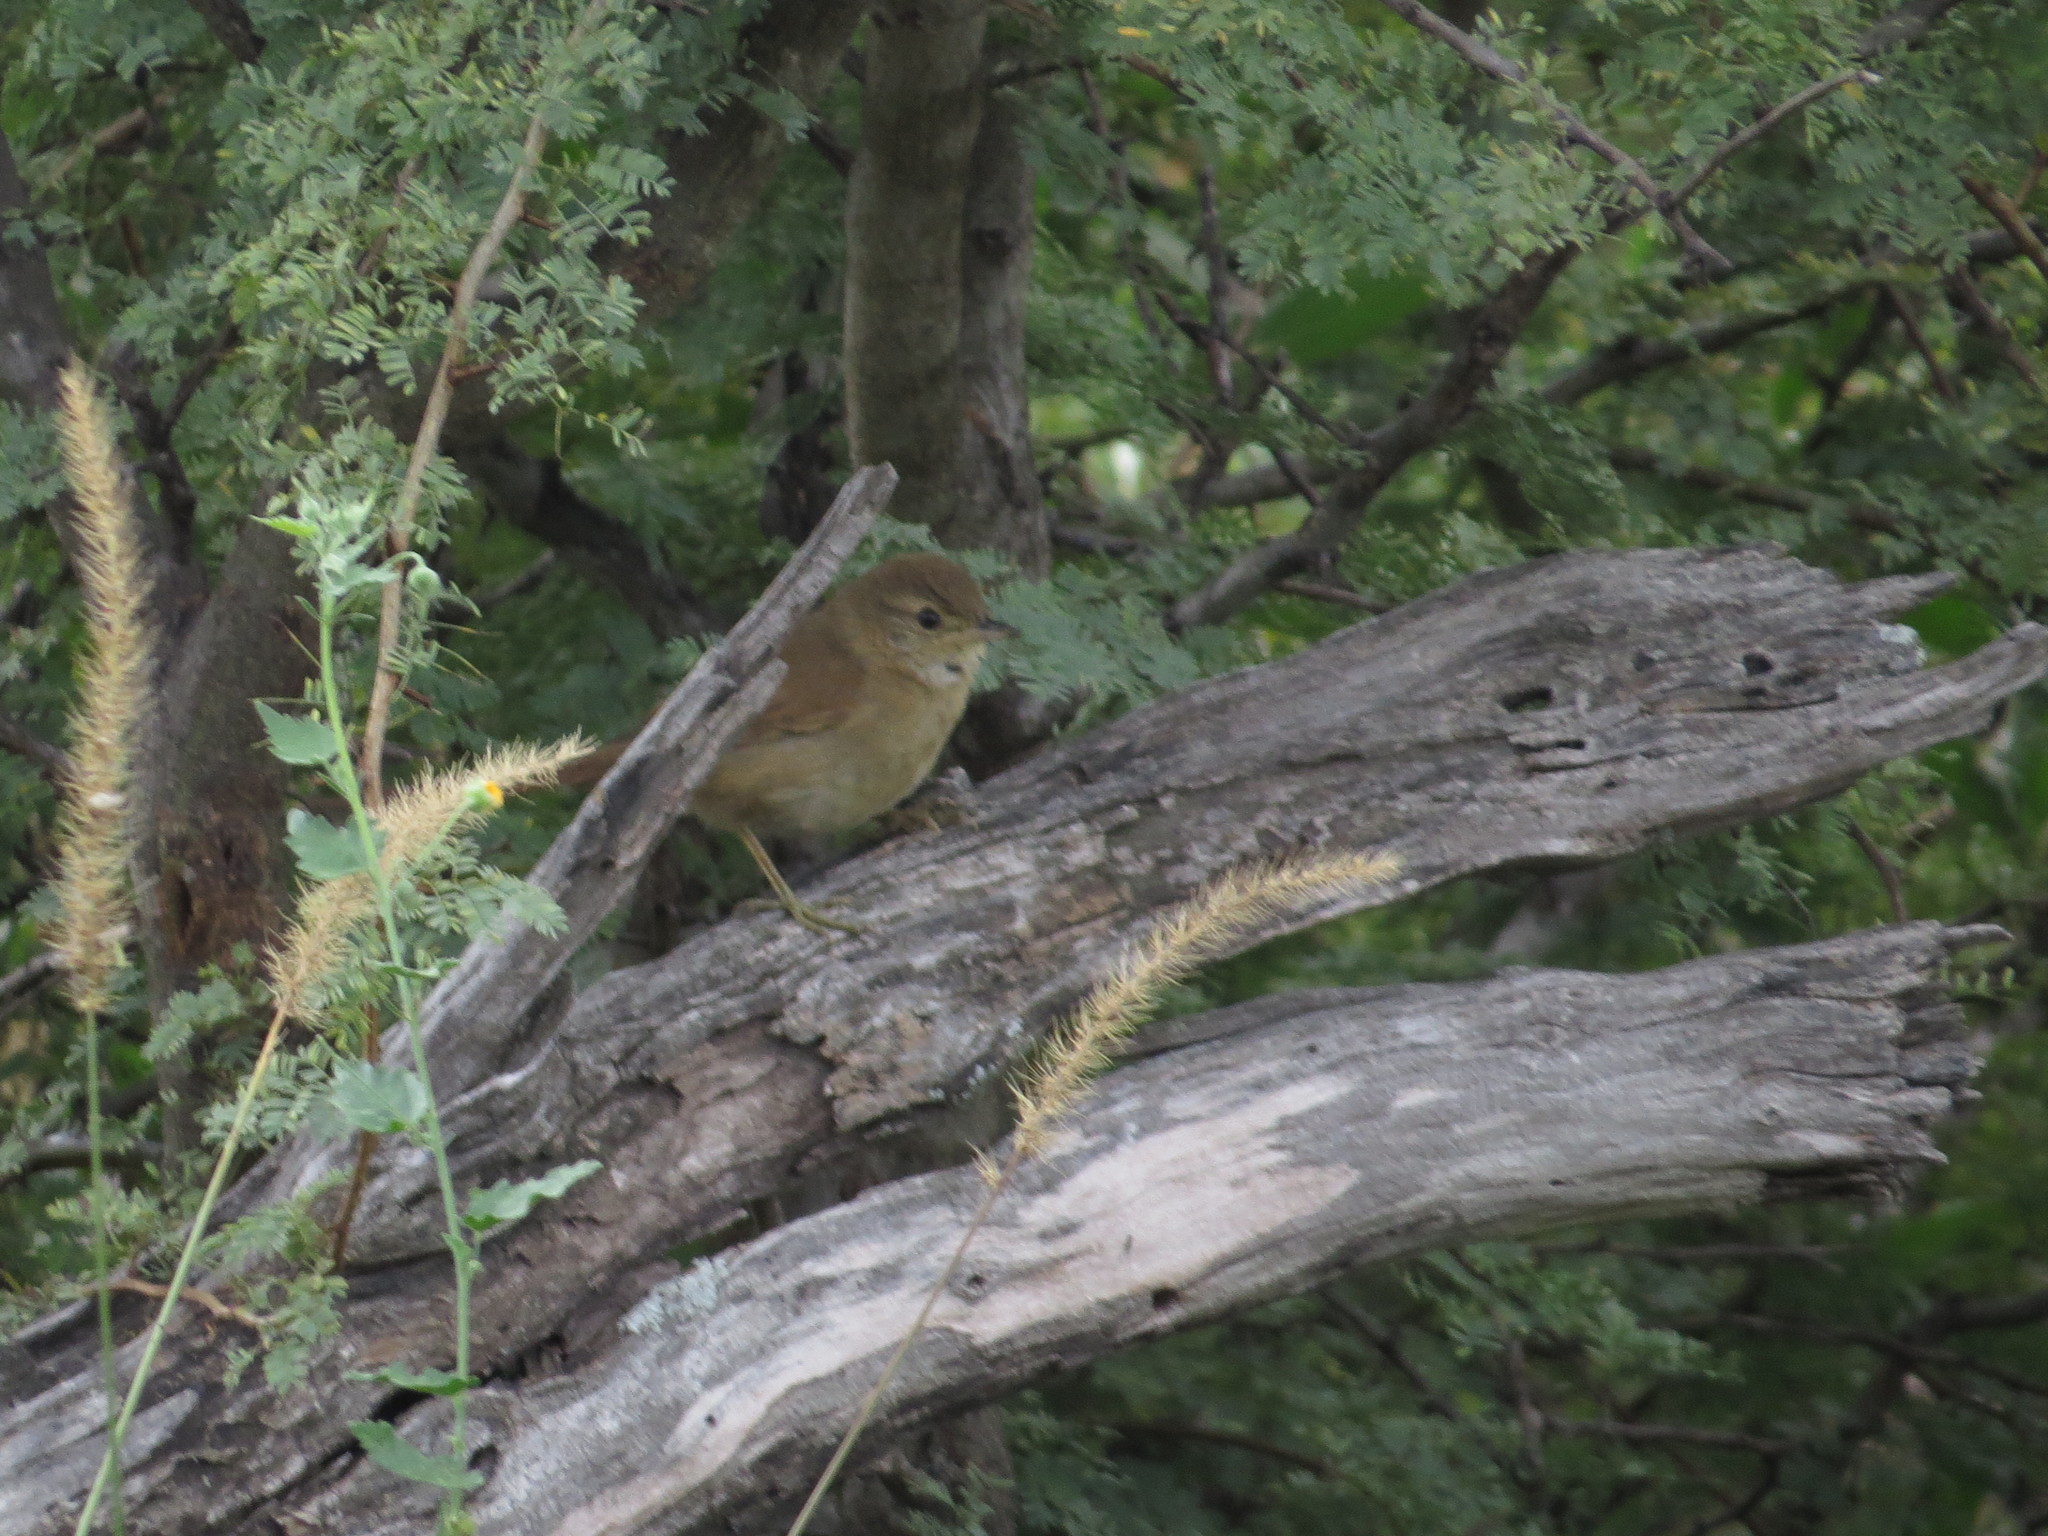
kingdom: Animalia
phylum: Chordata
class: Aves
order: Passeriformes
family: Furnariidae
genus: Asthenes
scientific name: Asthenes baeri
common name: Short-billed canastero
